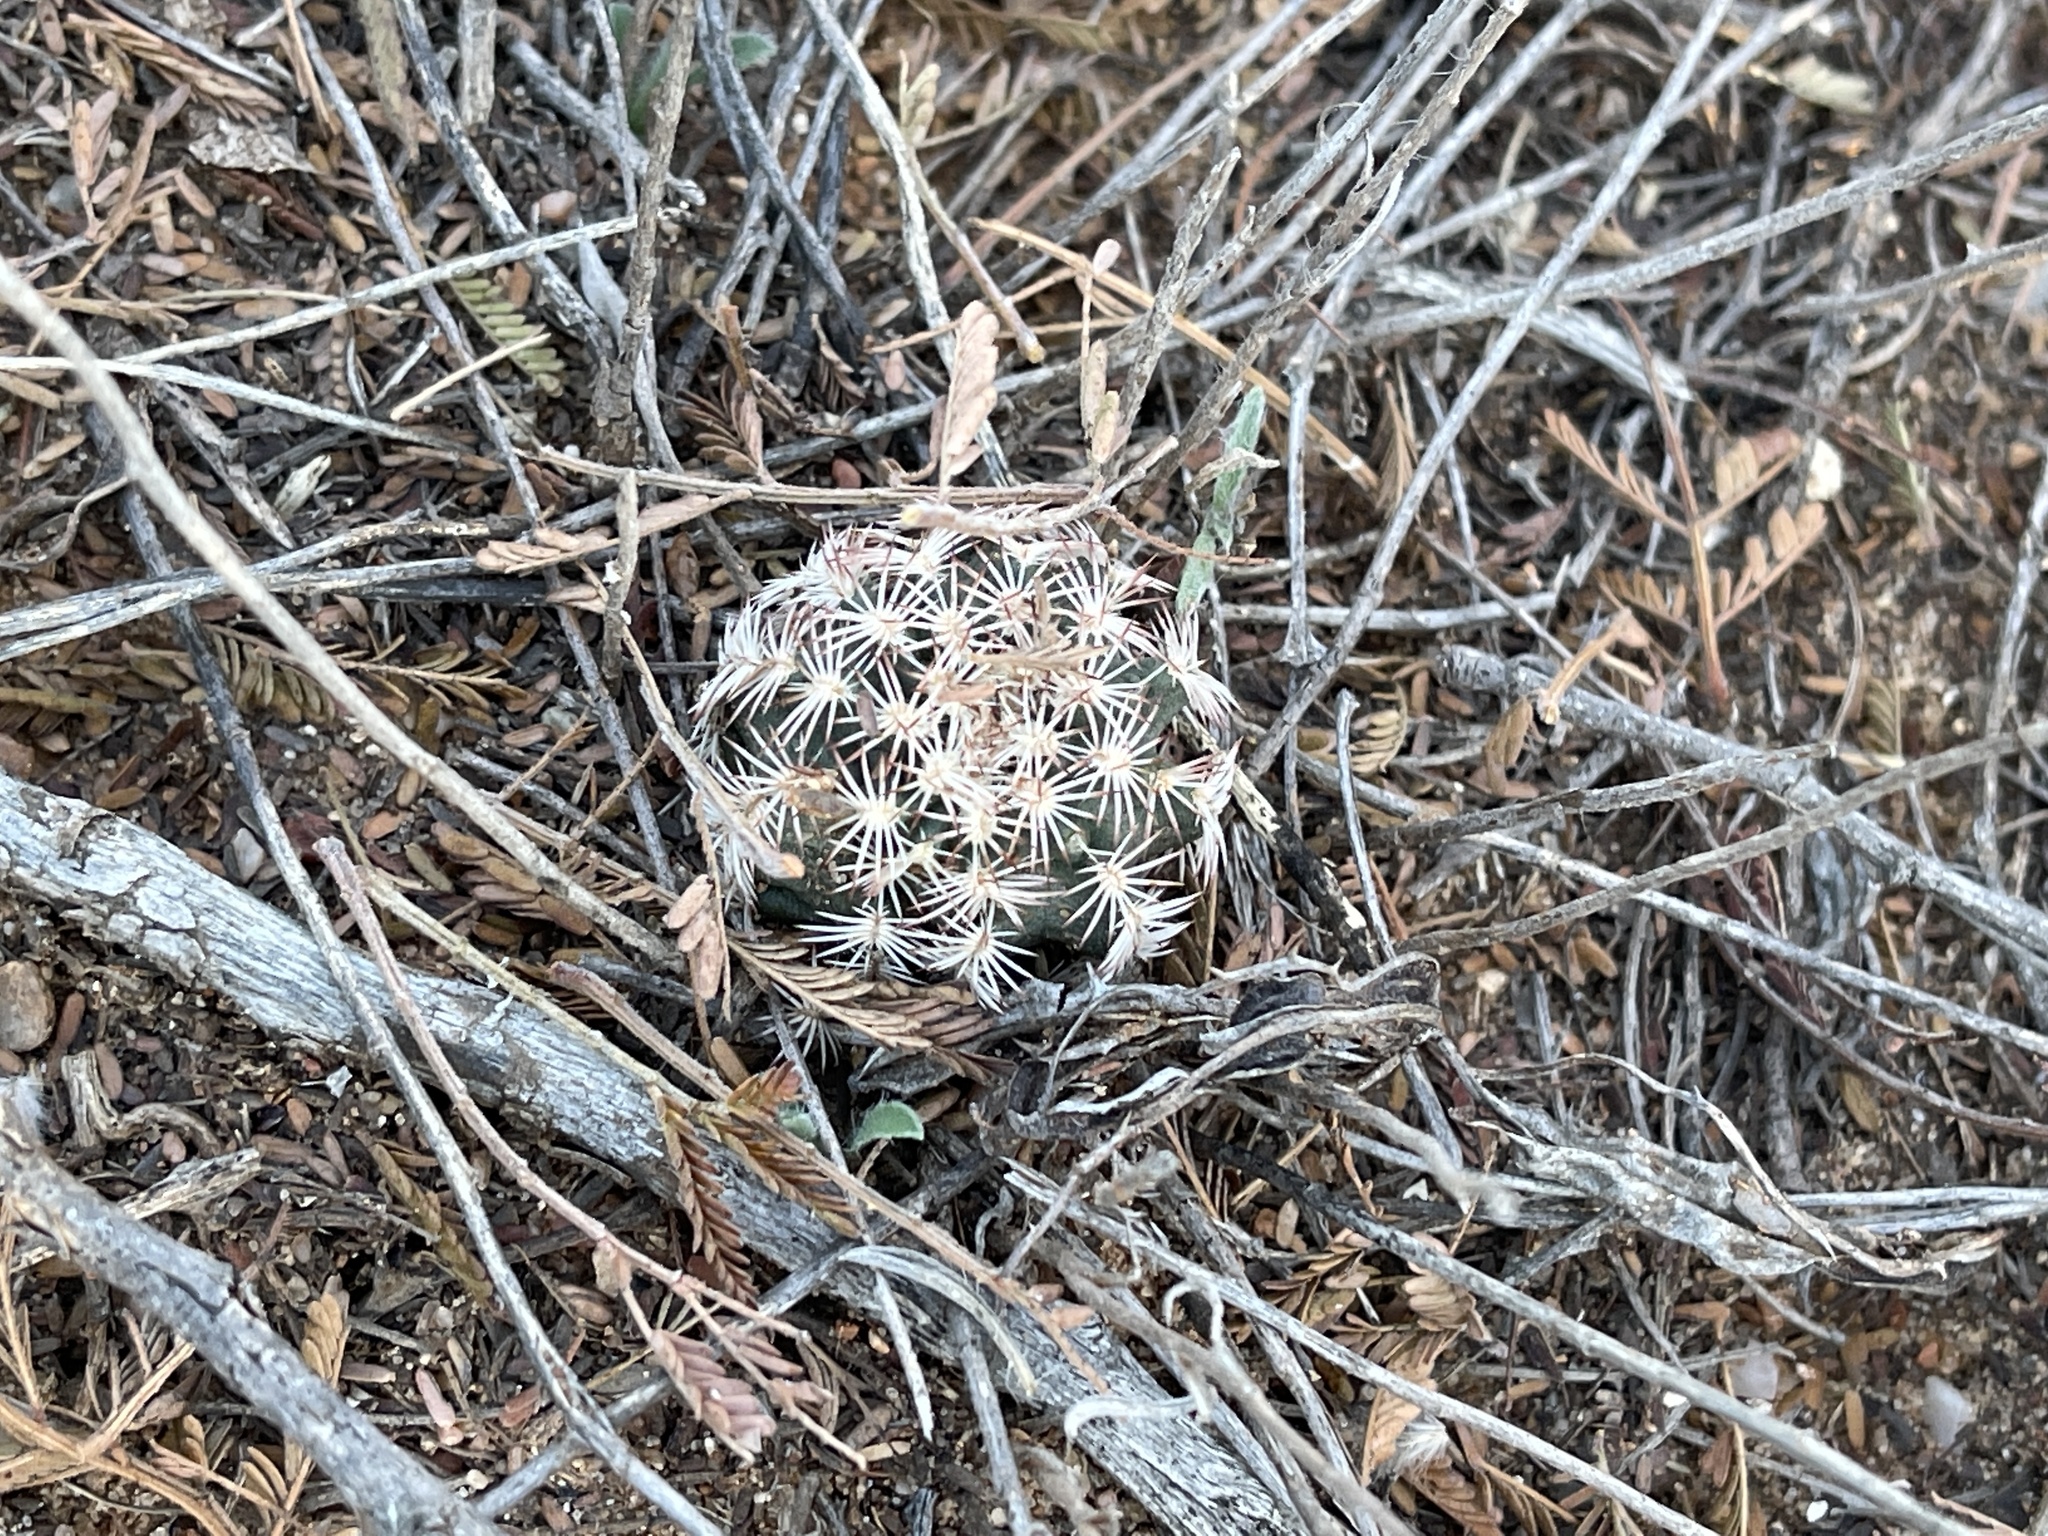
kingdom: Plantae
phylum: Tracheophyta
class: Magnoliopsida
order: Caryophyllales
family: Cactaceae
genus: Echinocereus
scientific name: Echinocereus reichenbachii
